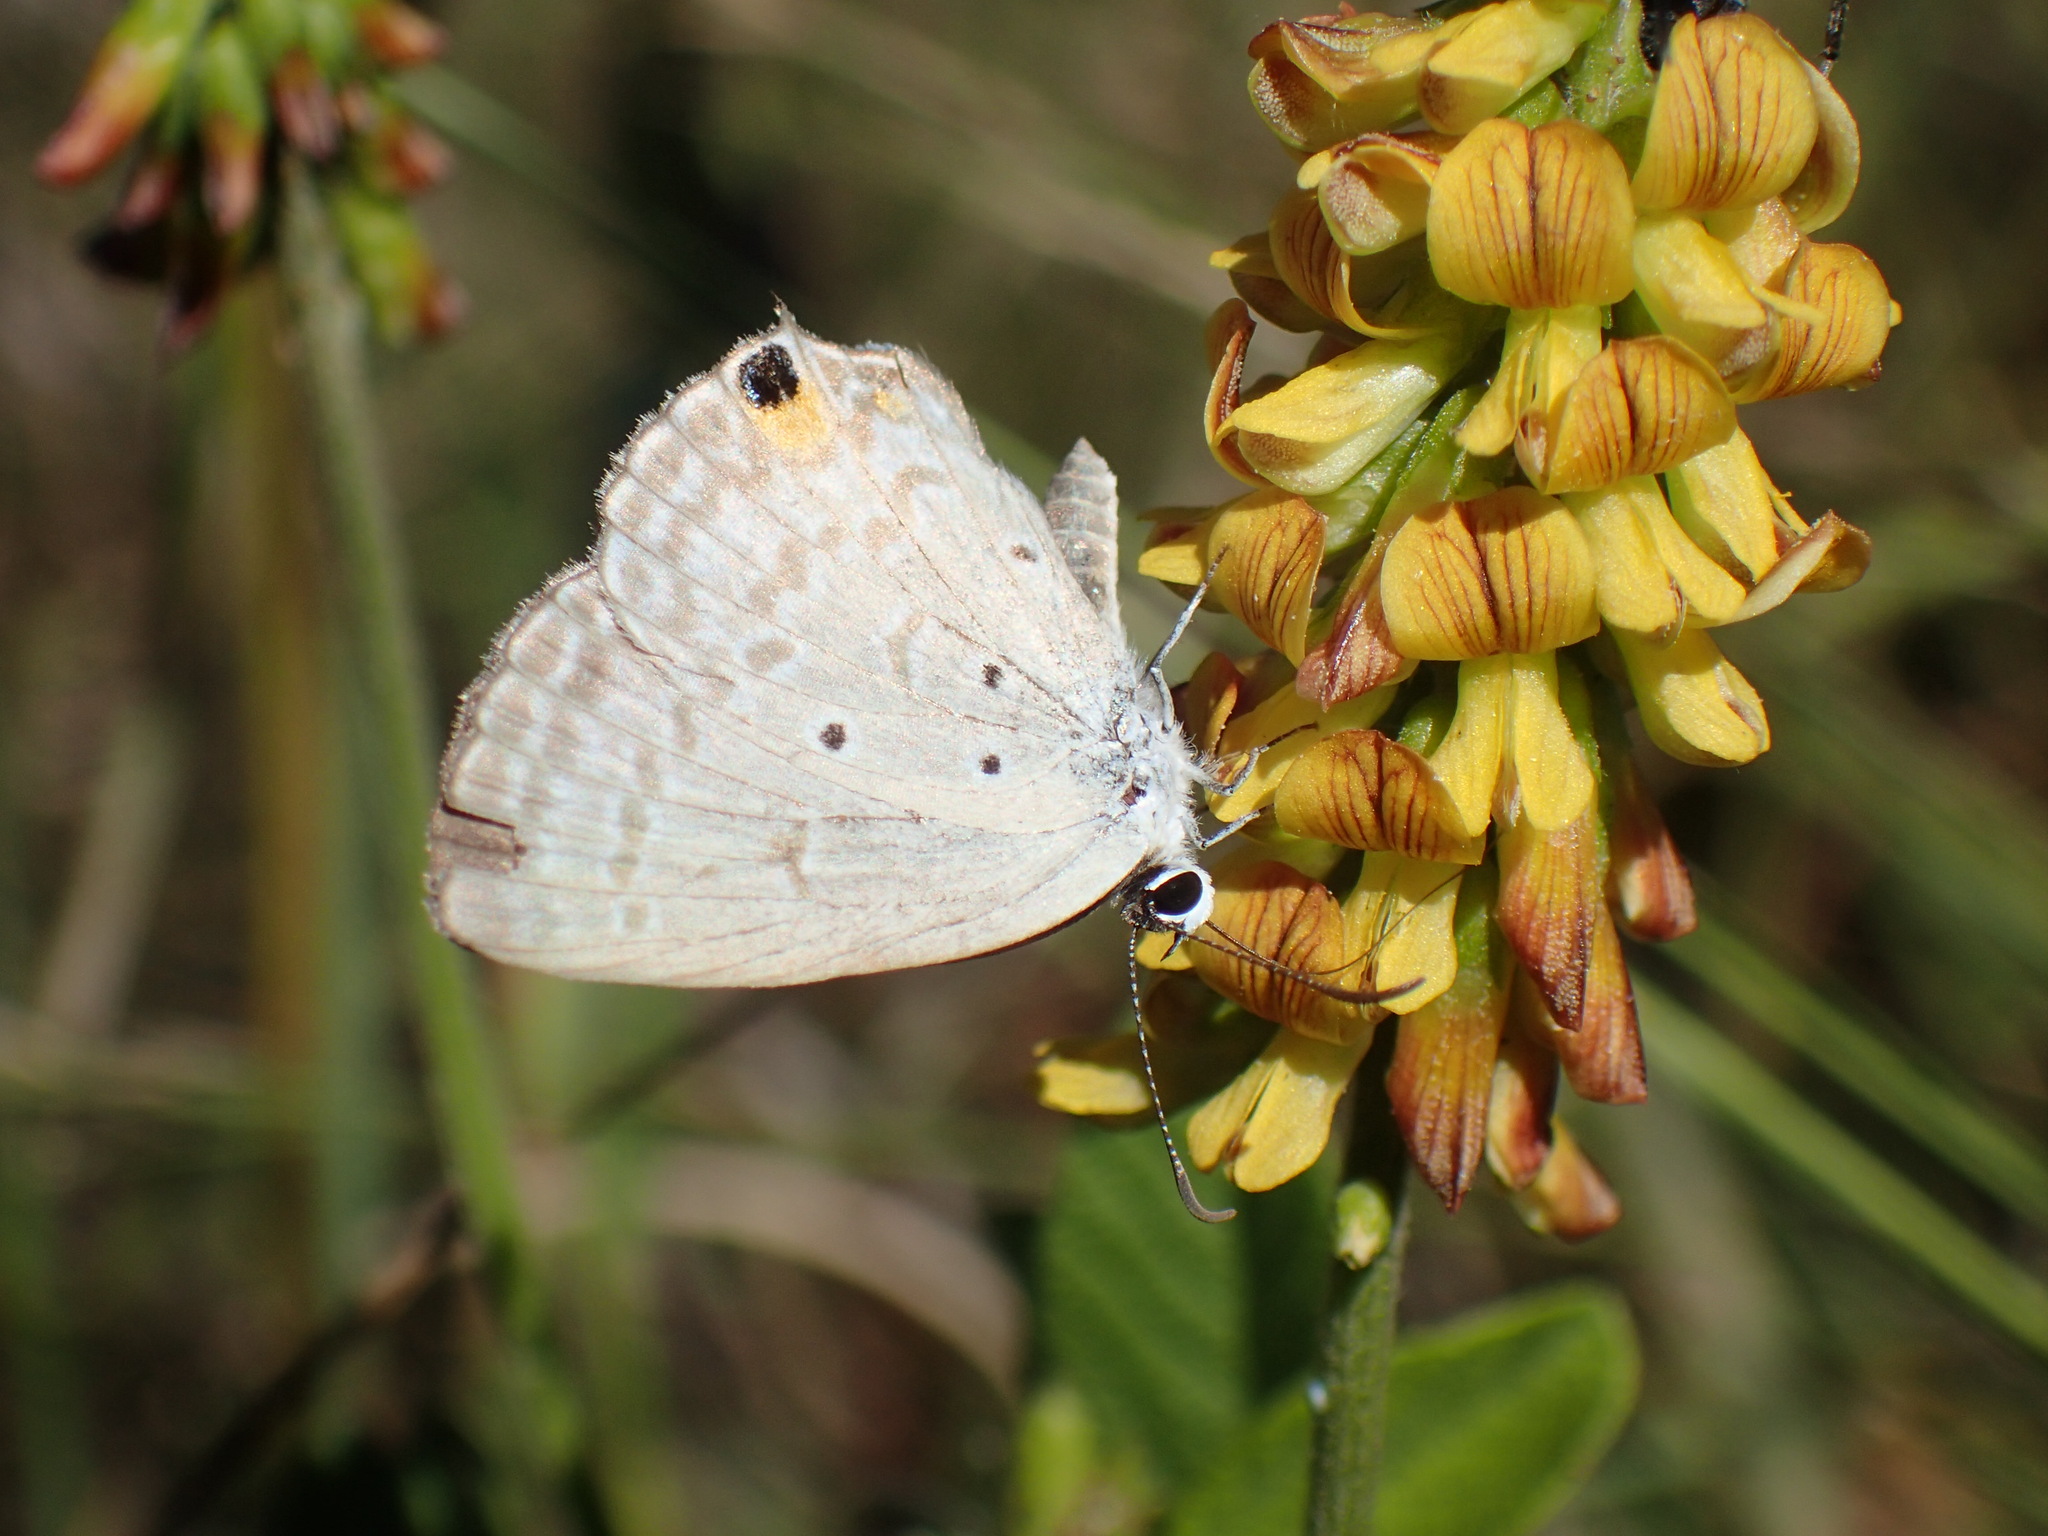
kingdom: Animalia
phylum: Arthropoda
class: Insecta
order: Lepidoptera
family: Lycaenidae
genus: Euchrysops
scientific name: Euchrysops malathana
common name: Common smoky blue
